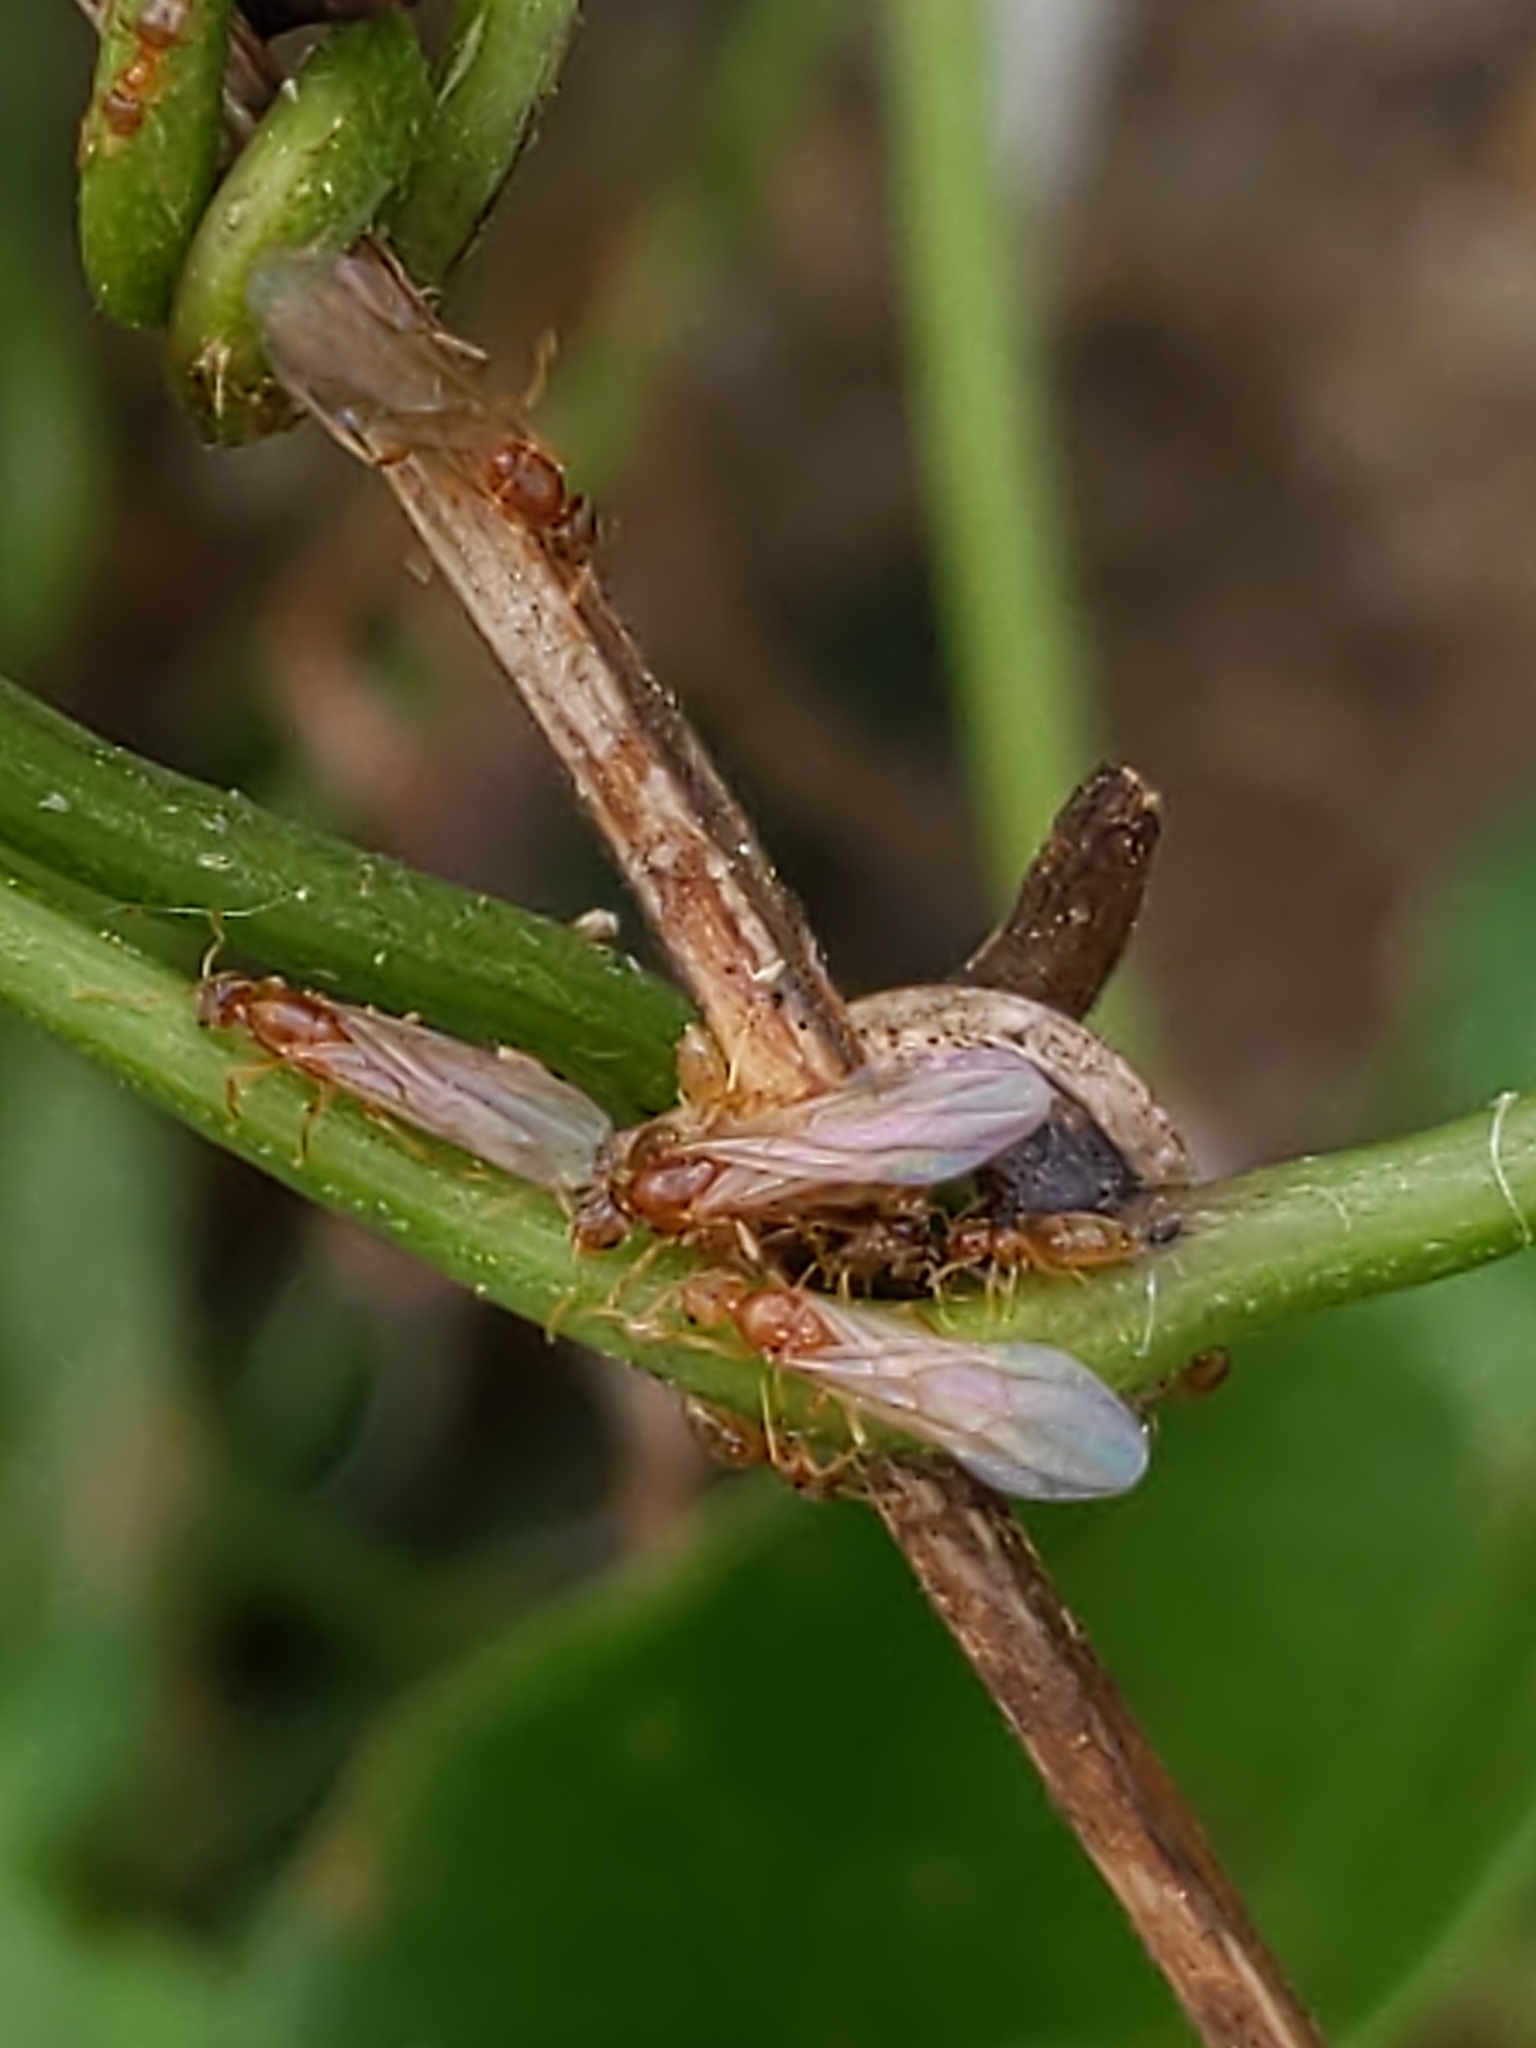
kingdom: Animalia
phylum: Arthropoda
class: Insecta
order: Hymenoptera
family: Formicidae
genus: Brachymyrmex
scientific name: Brachymyrmex depilis
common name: Hairless rover ant
